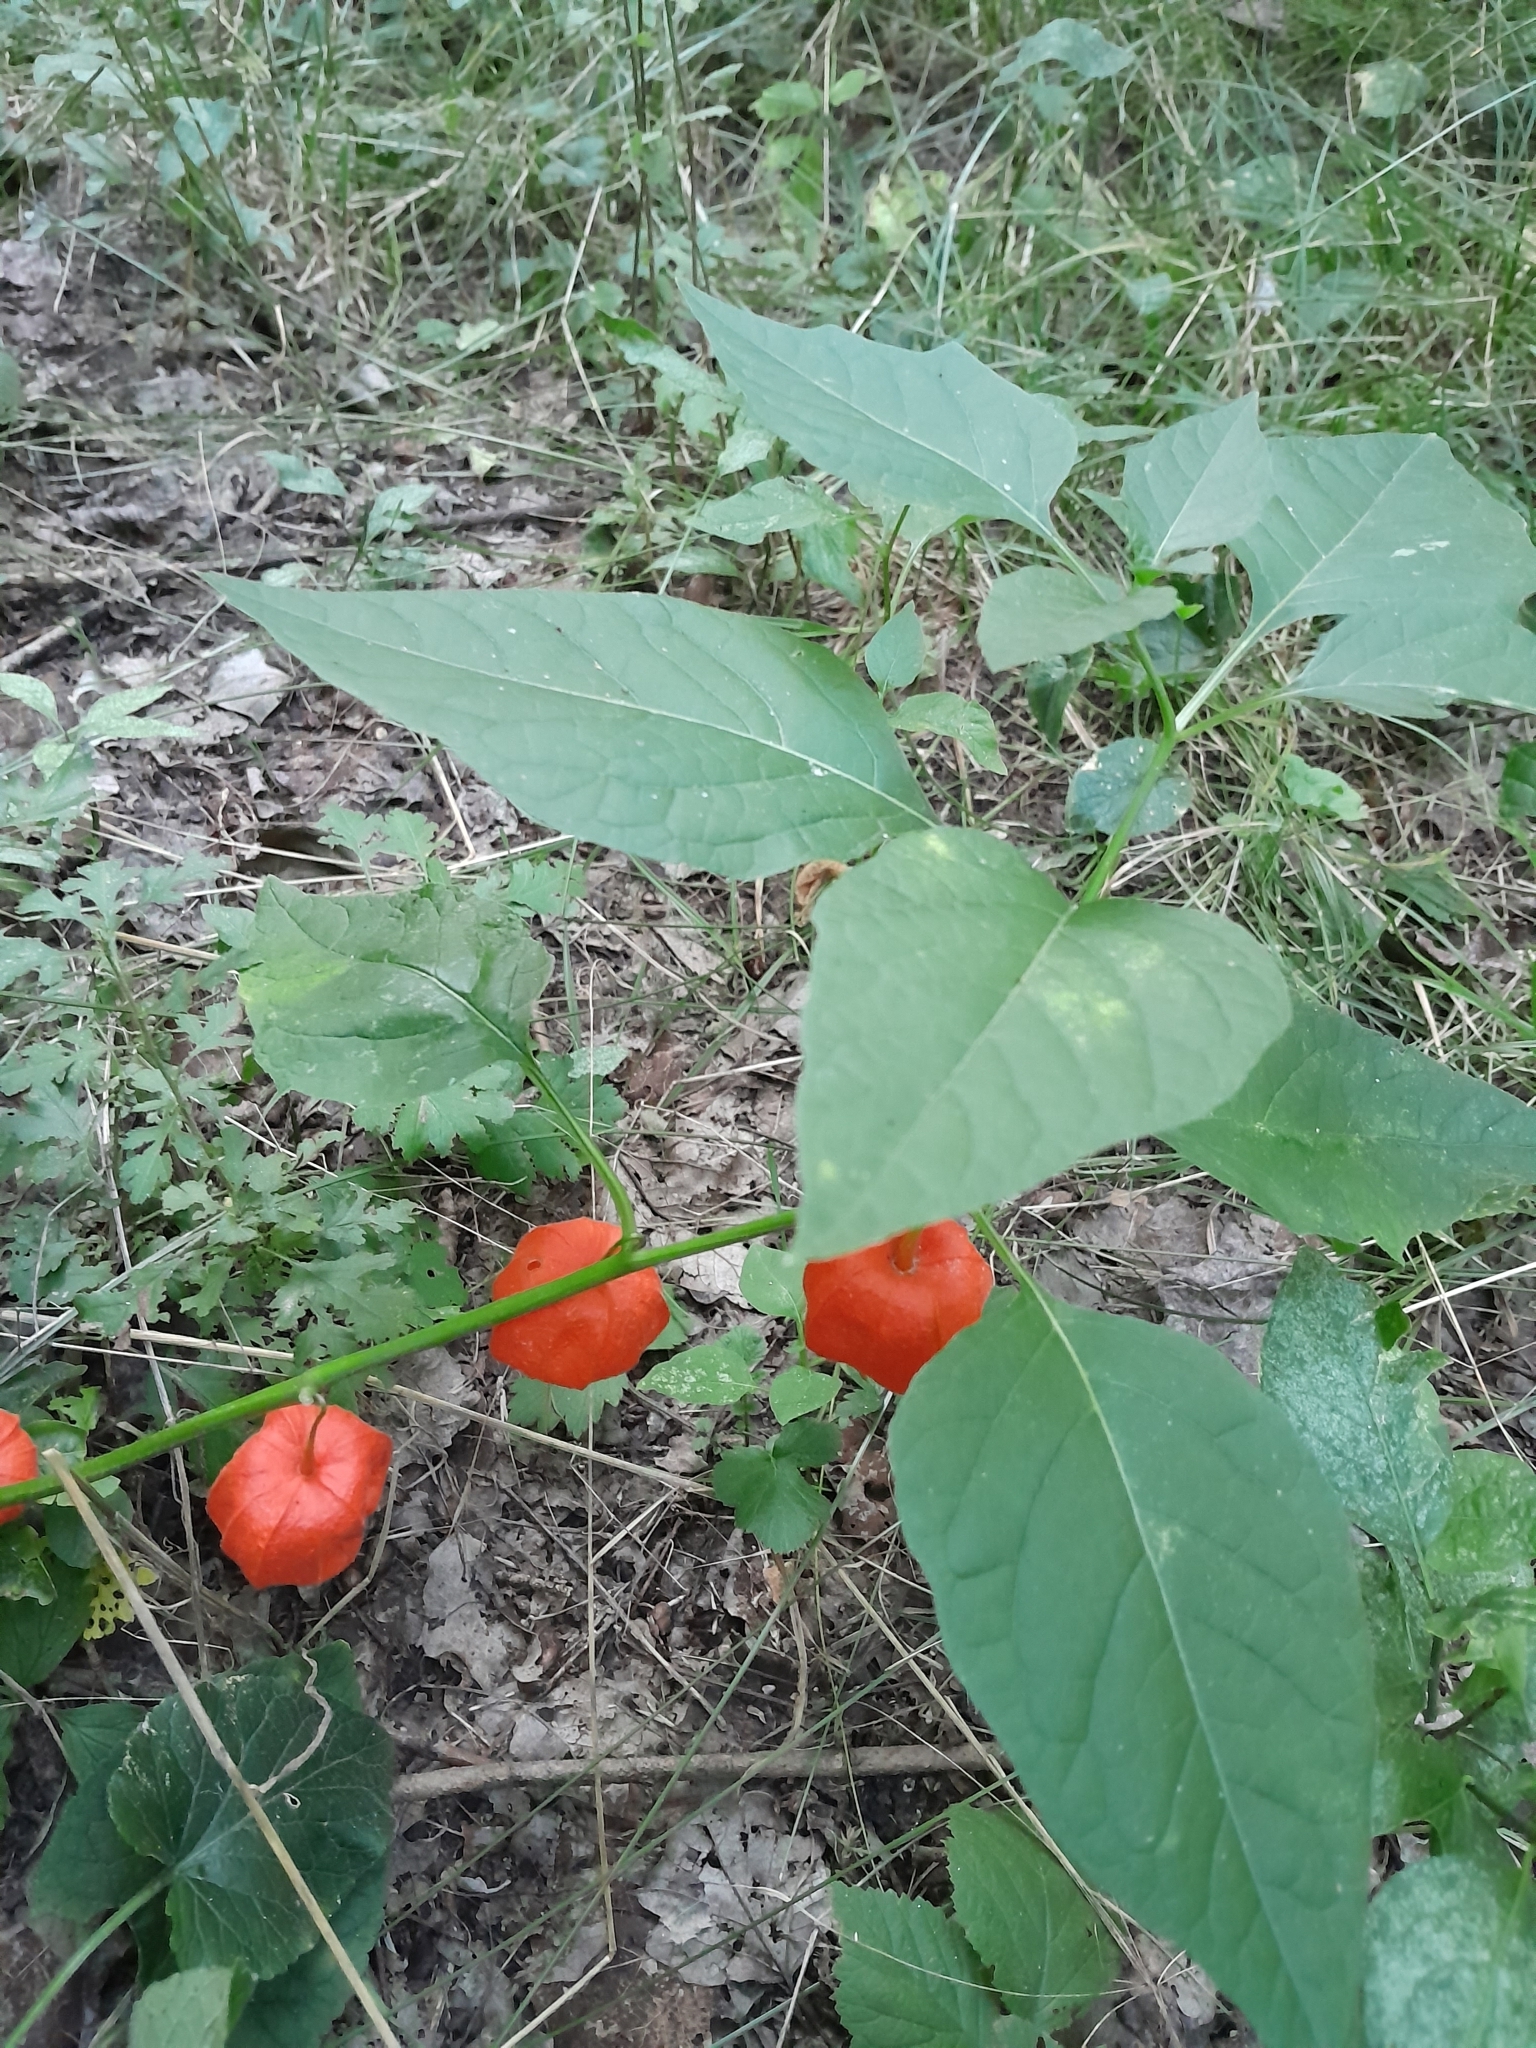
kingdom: Plantae
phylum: Tracheophyta
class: Magnoliopsida
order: Solanales
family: Solanaceae
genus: Alkekengi
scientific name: Alkekengi officinarum
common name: Japanese-lantern
